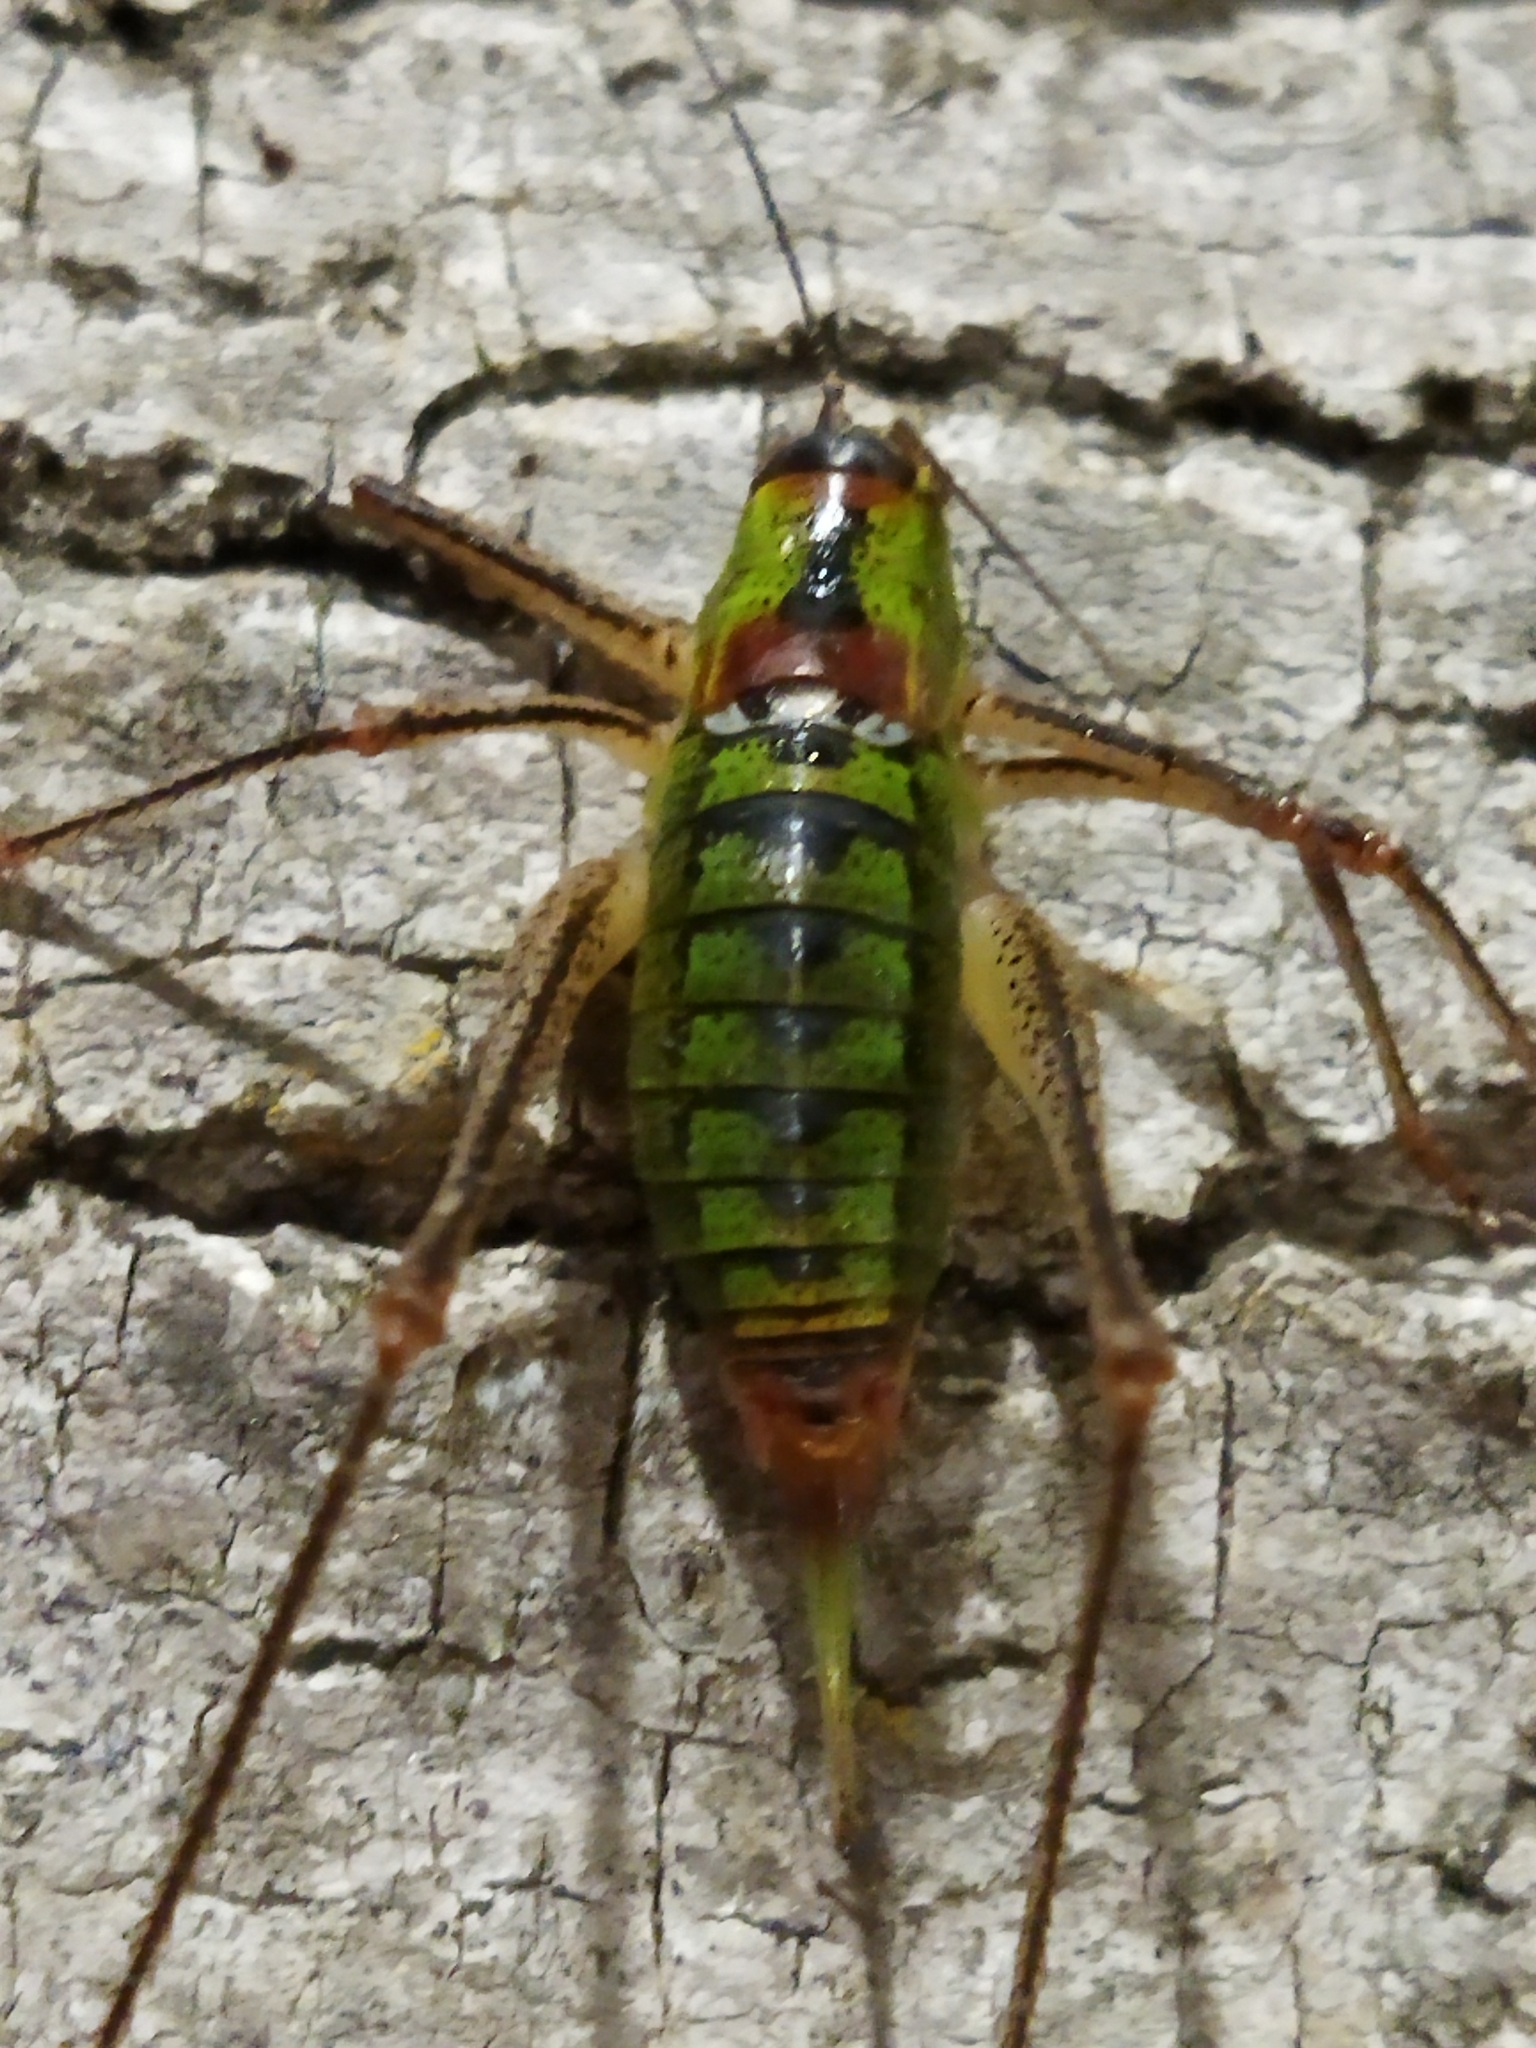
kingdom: Animalia
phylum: Arthropoda
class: Insecta
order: Orthoptera
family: Tettigoniidae
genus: Poecilimon
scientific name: Poecilimon thoracicus
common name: Bellied bright bush-cricket
